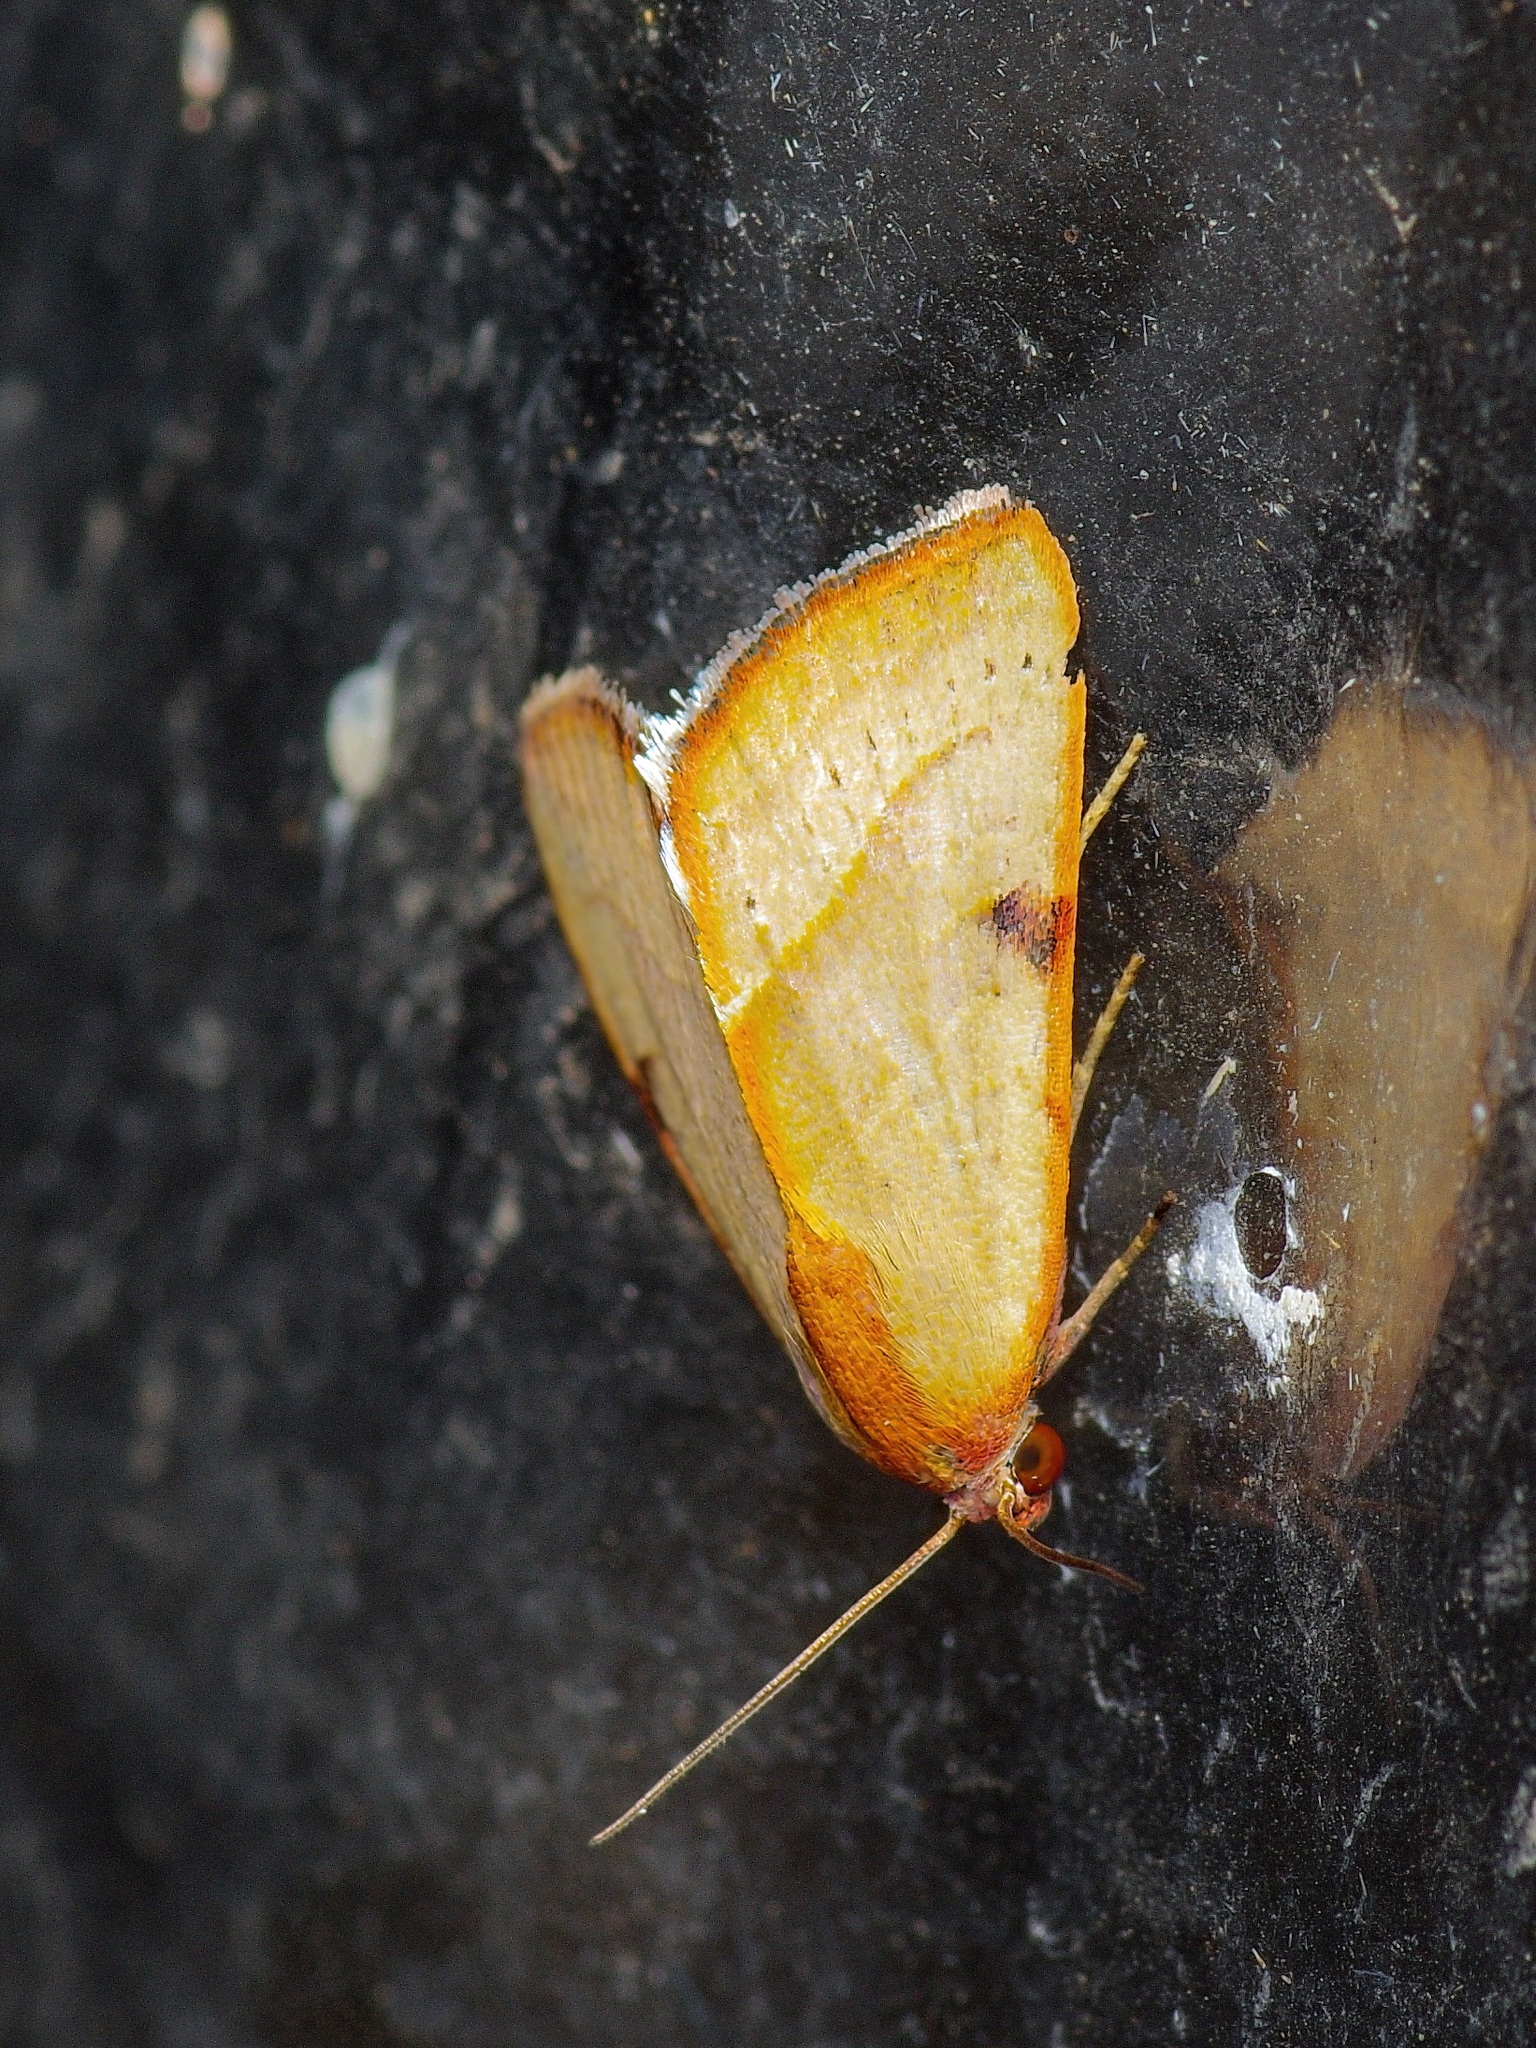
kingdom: Animalia
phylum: Arthropoda
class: Insecta
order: Lepidoptera
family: Noctuidae
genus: Galgula
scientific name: Galgula partita
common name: Wedgeling
